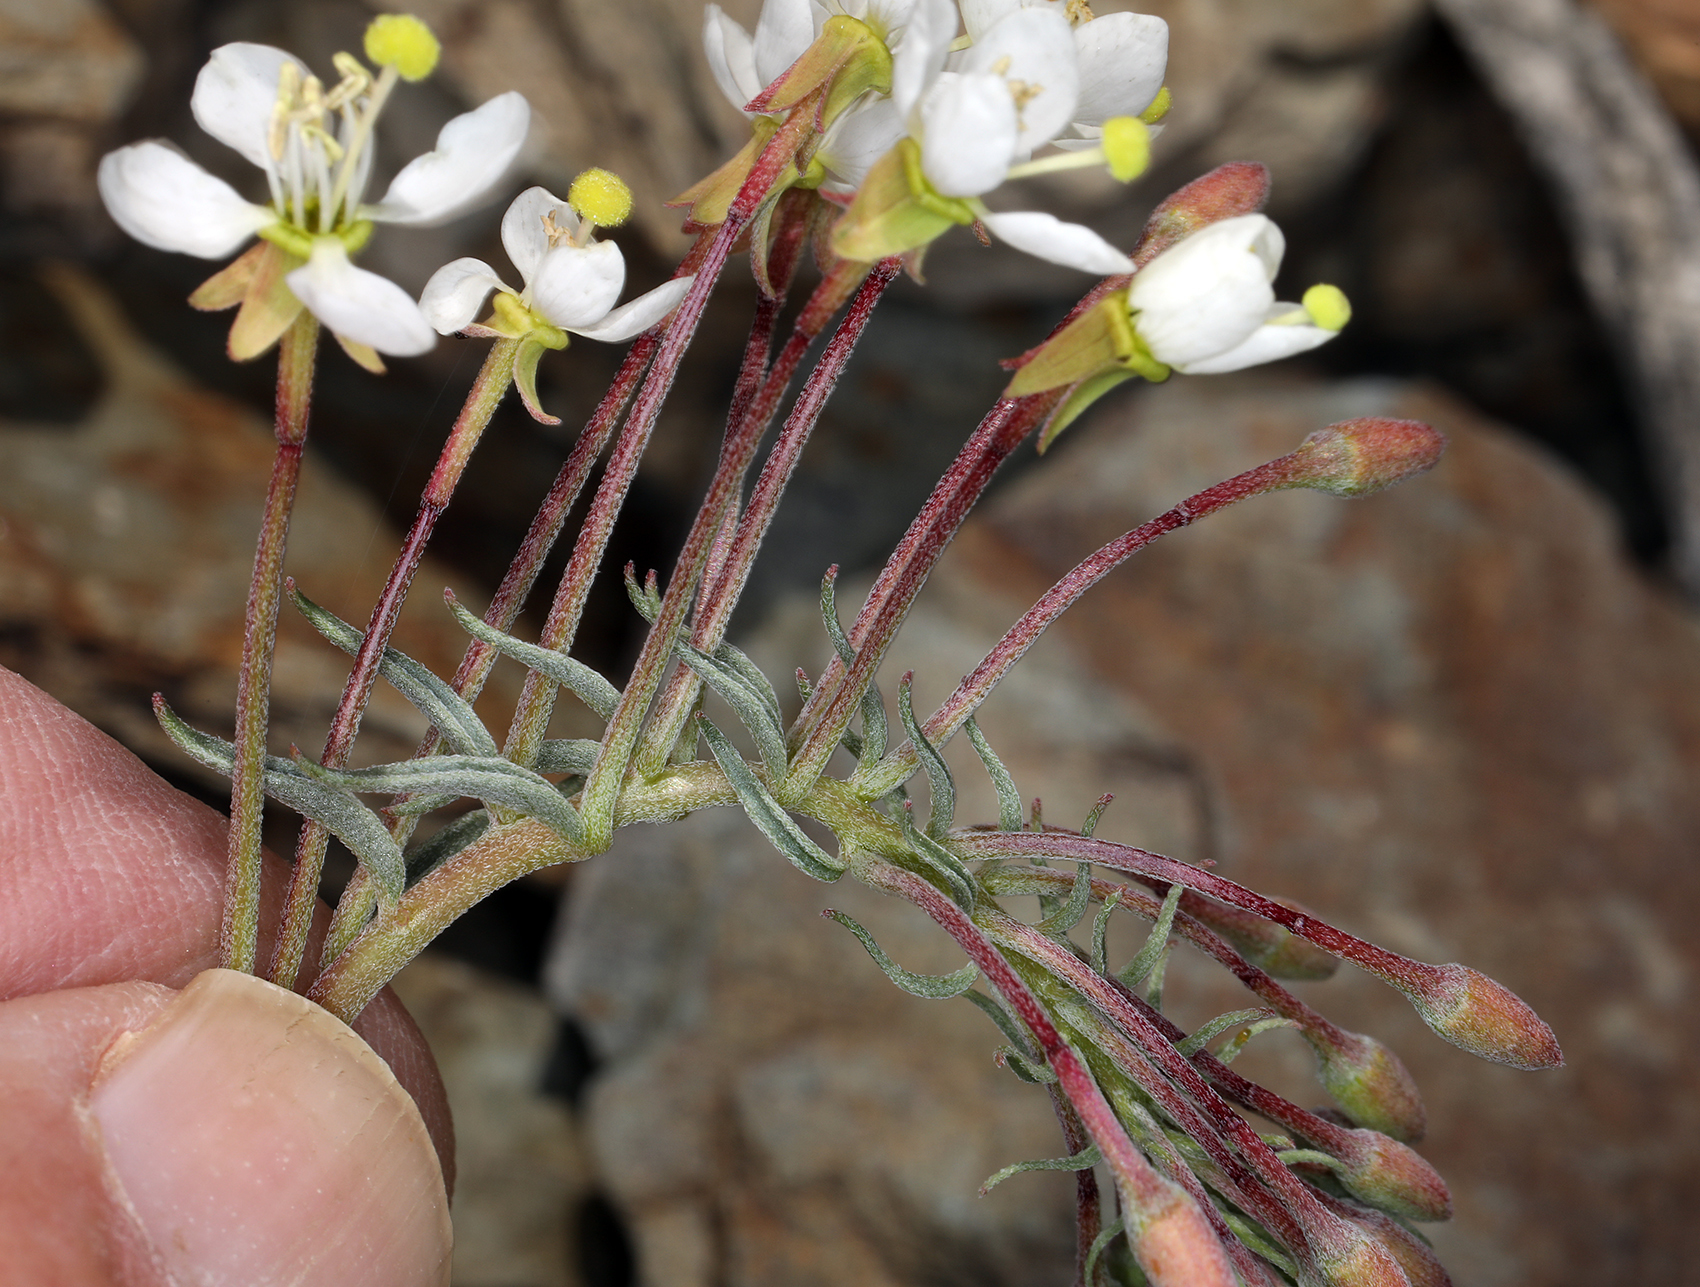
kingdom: Plantae
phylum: Tracheophyta
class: Magnoliopsida
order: Myrtales
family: Onagraceae
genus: Eremothera
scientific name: Eremothera boothii
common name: Booth's evening primrose
